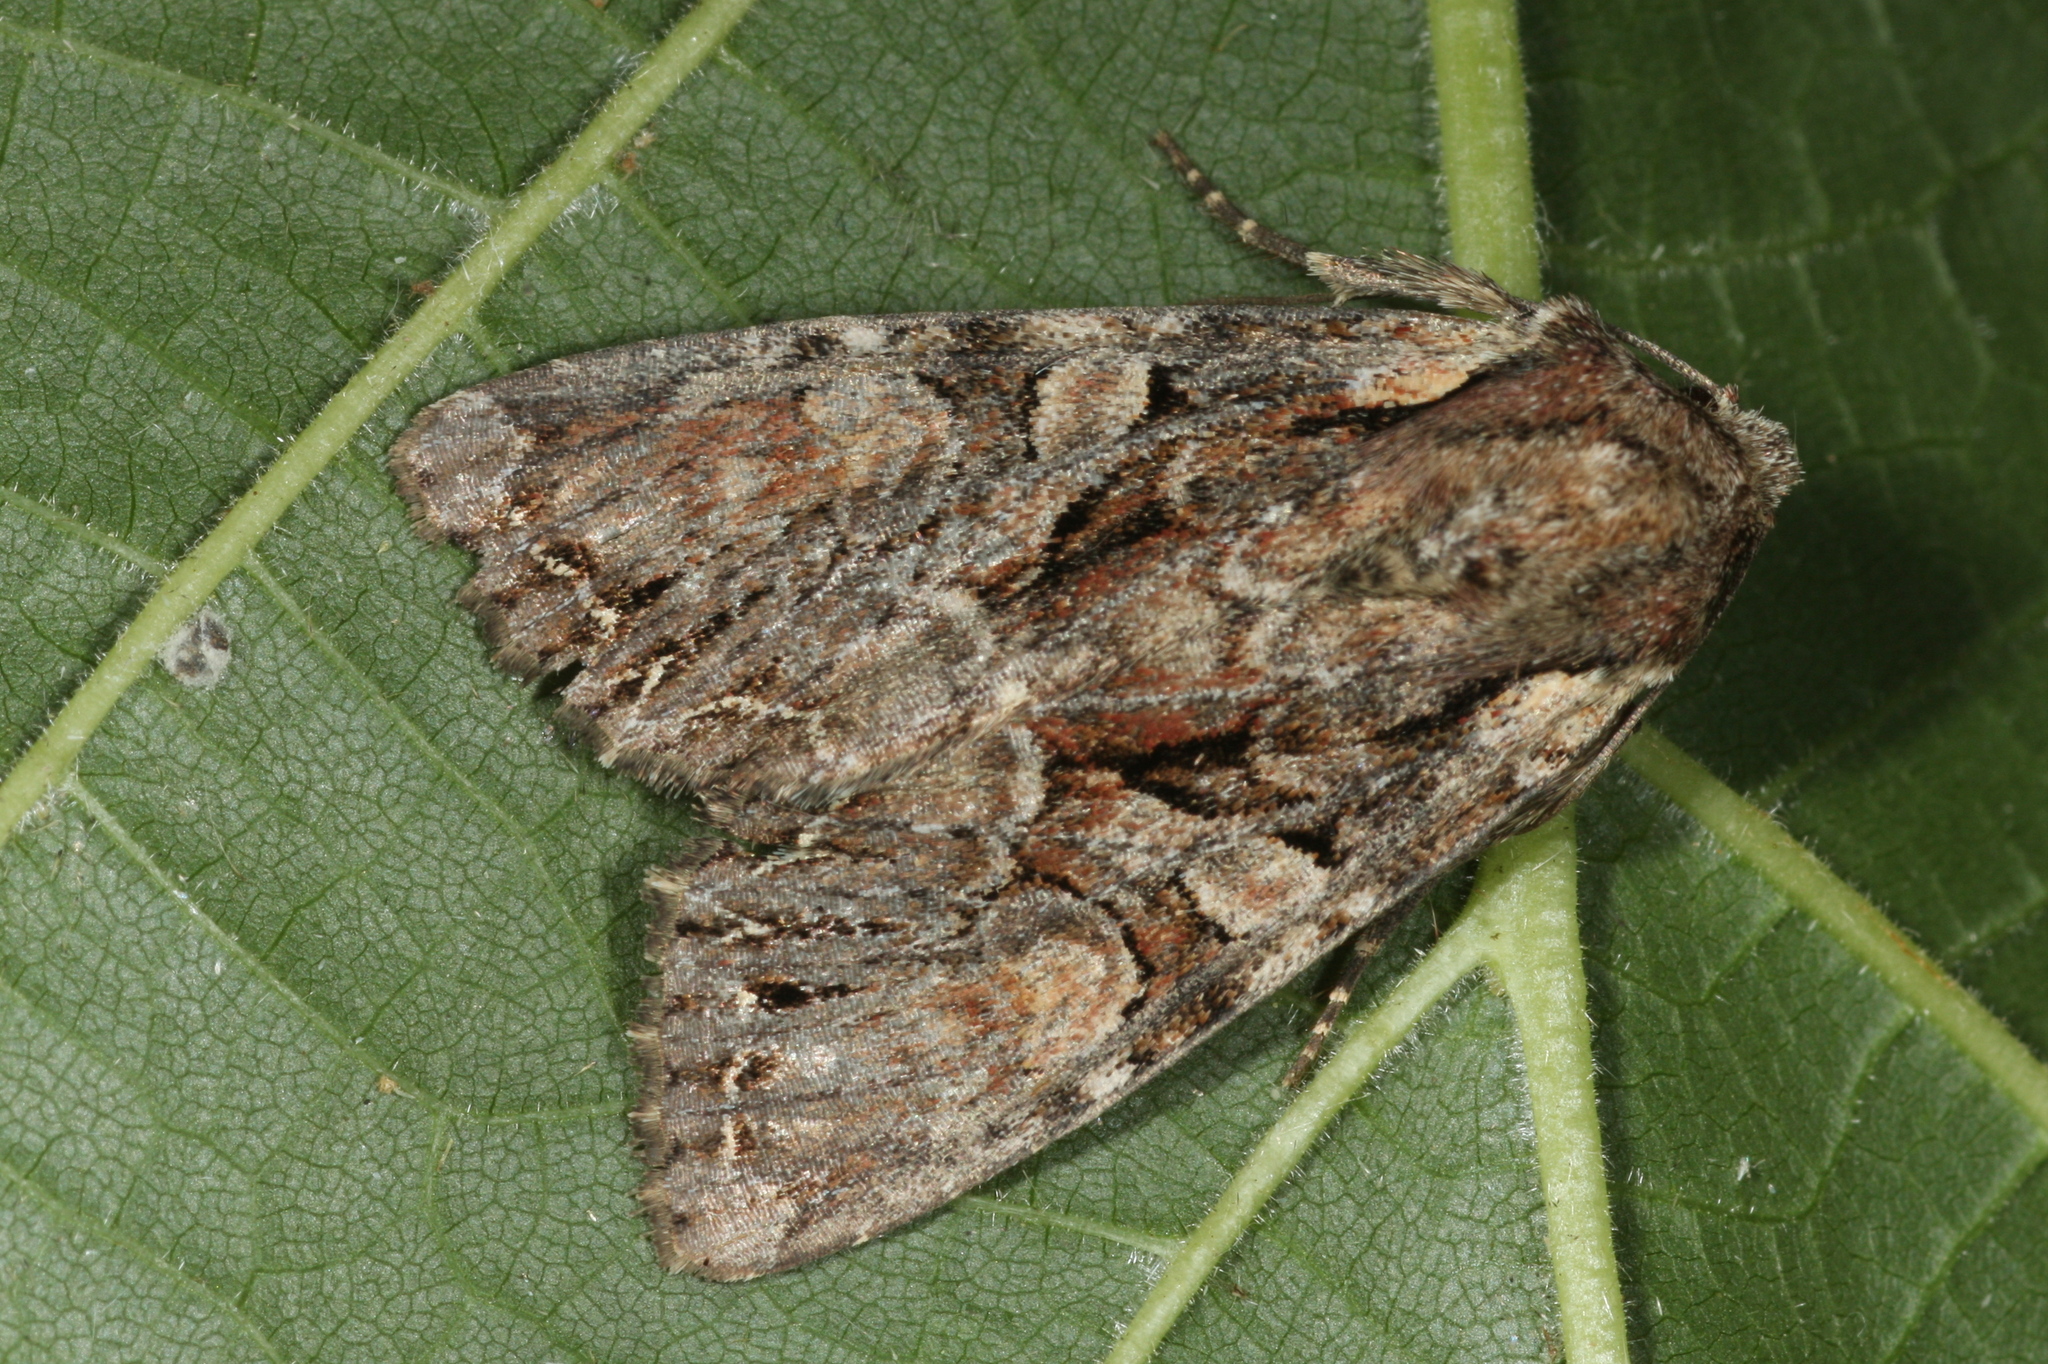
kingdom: Animalia
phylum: Arthropoda
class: Insecta
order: Lepidoptera
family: Noctuidae
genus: Lacanobia
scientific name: Lacanobia thalassina
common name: Pale-shouldered brocade
